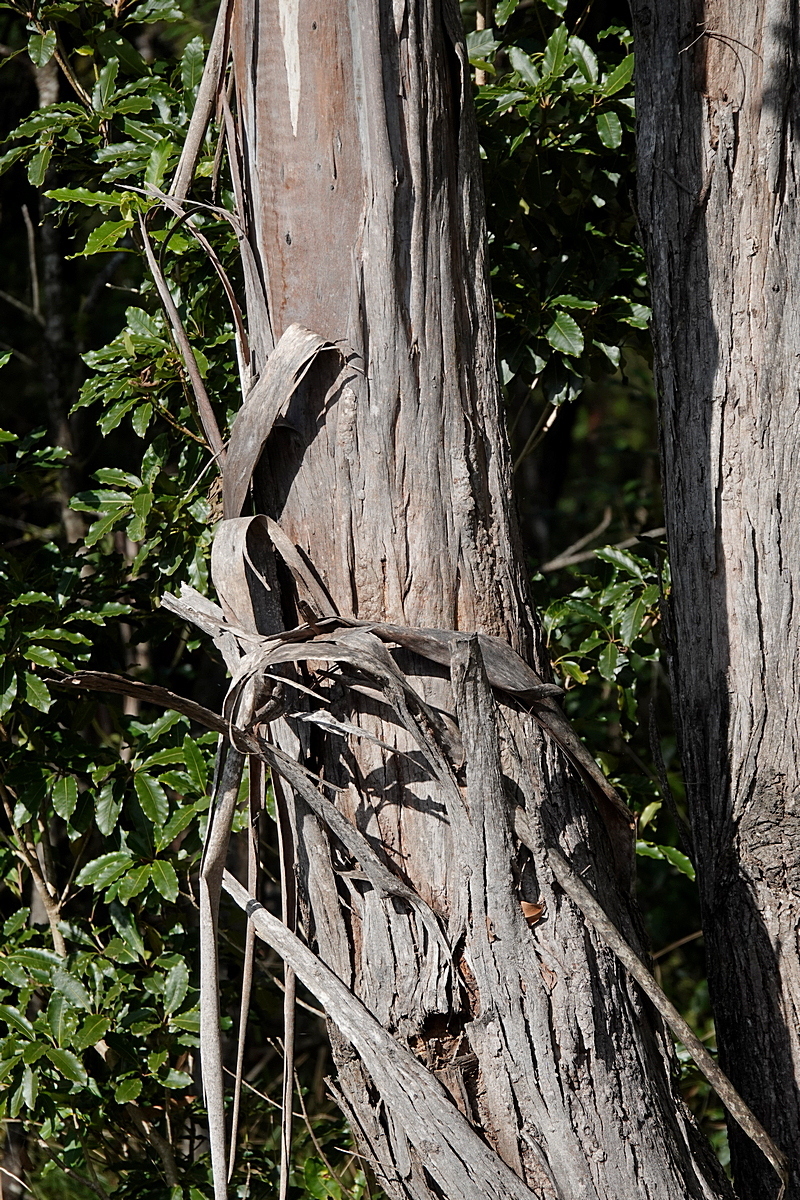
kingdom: Plantae
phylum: Tracheophyta
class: Magnoliopsida
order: Myrtales
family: Myrtaceae
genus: Eucalyptus
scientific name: Eucalyptus ovata
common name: Black-gum
